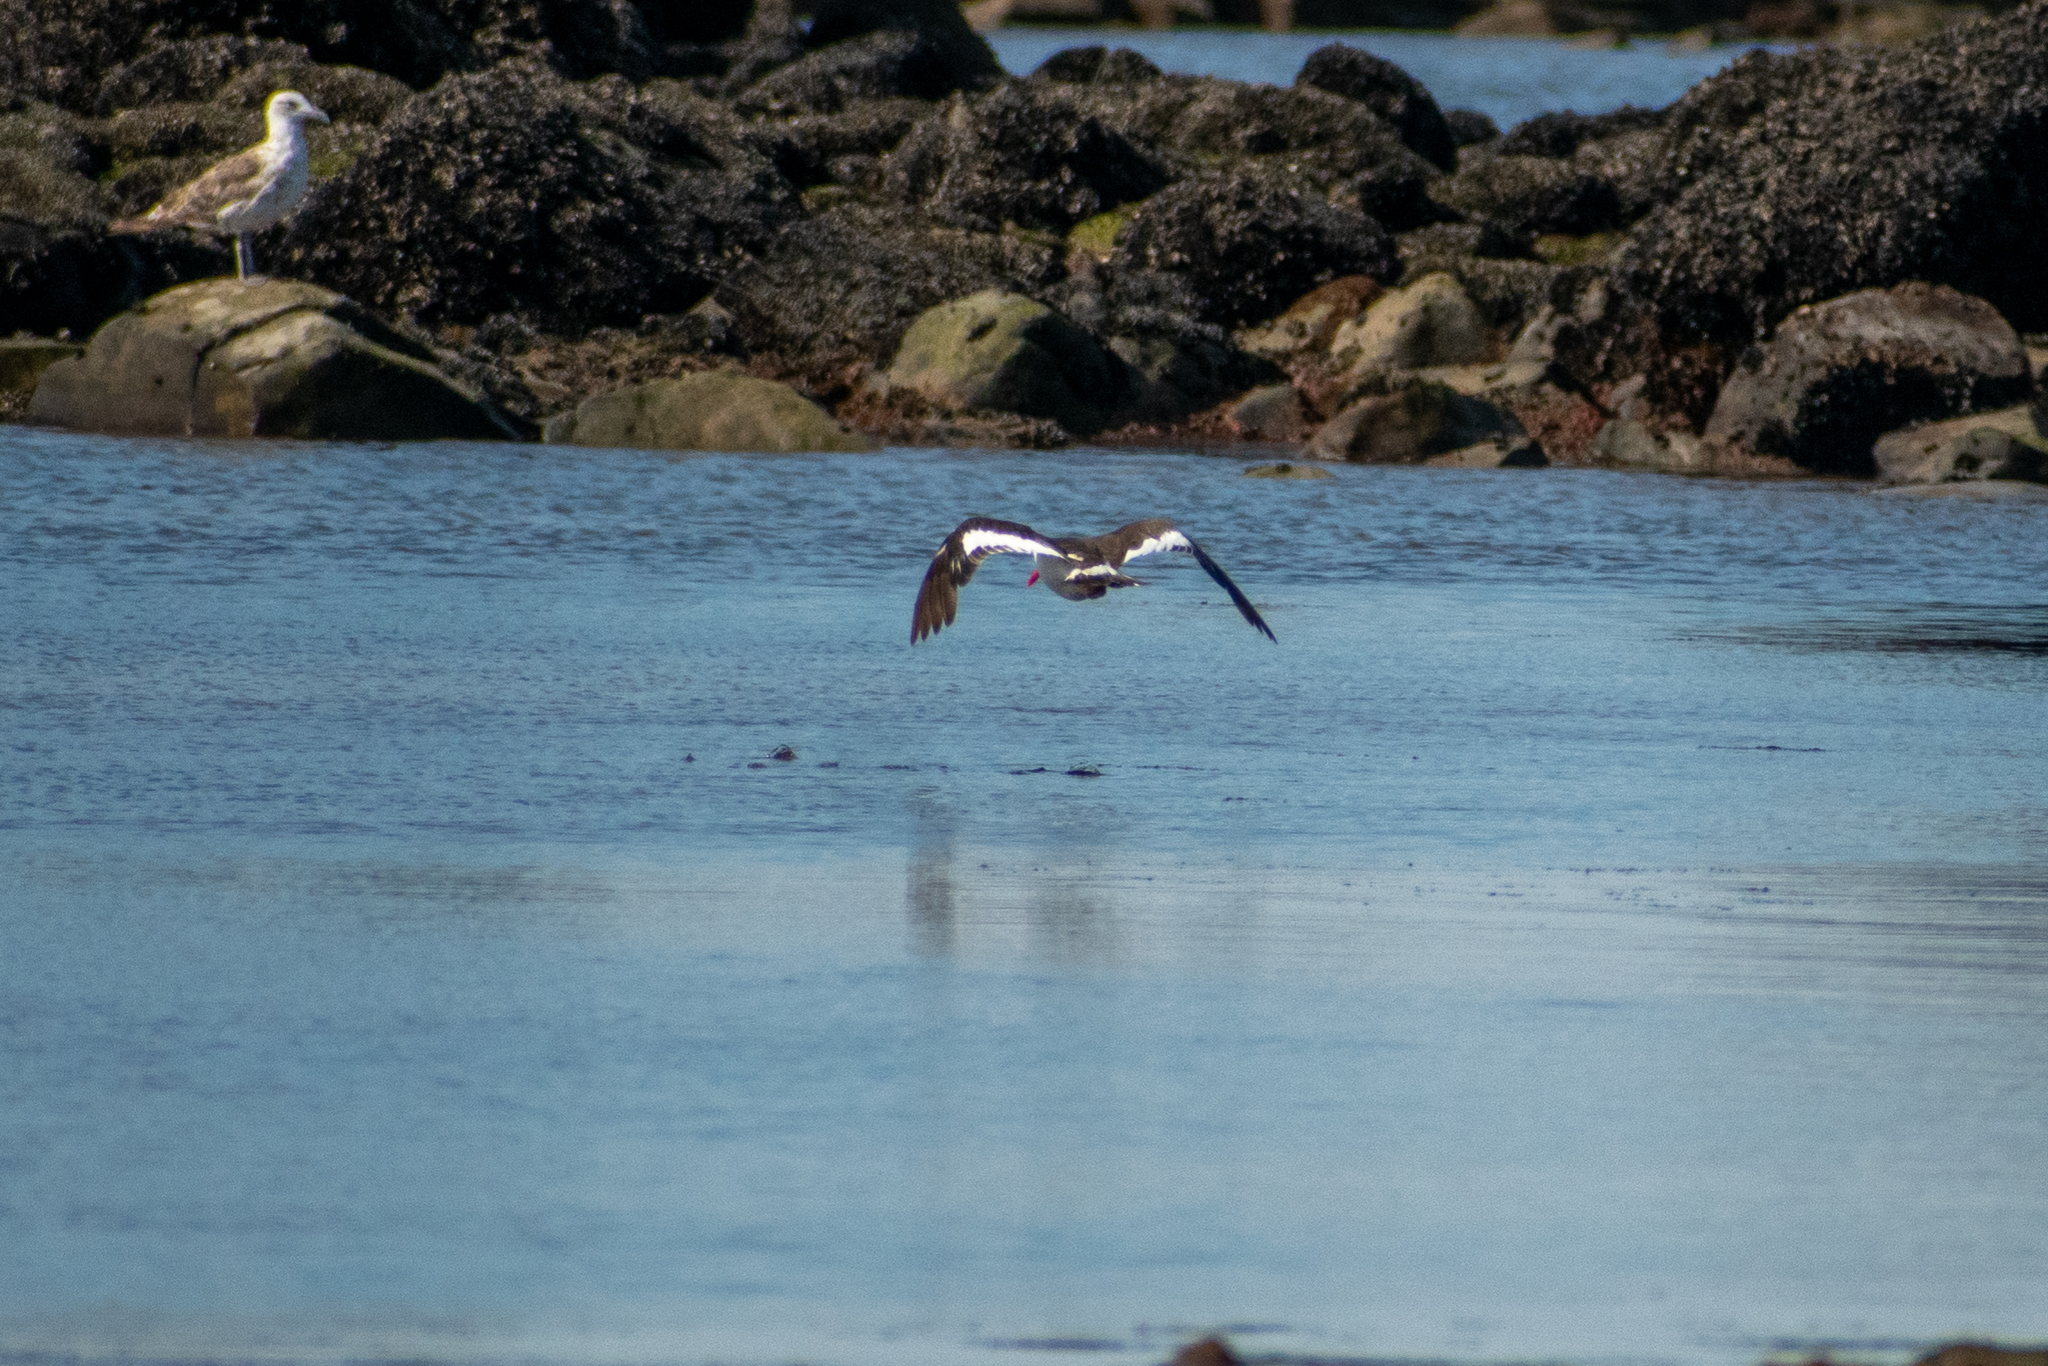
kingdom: Animalia
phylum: Chordata
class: Aves
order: Charadriiformes
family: Laridae
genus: Leucophaeus
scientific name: Leucophaeus scoresbii
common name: Dolphin gull
